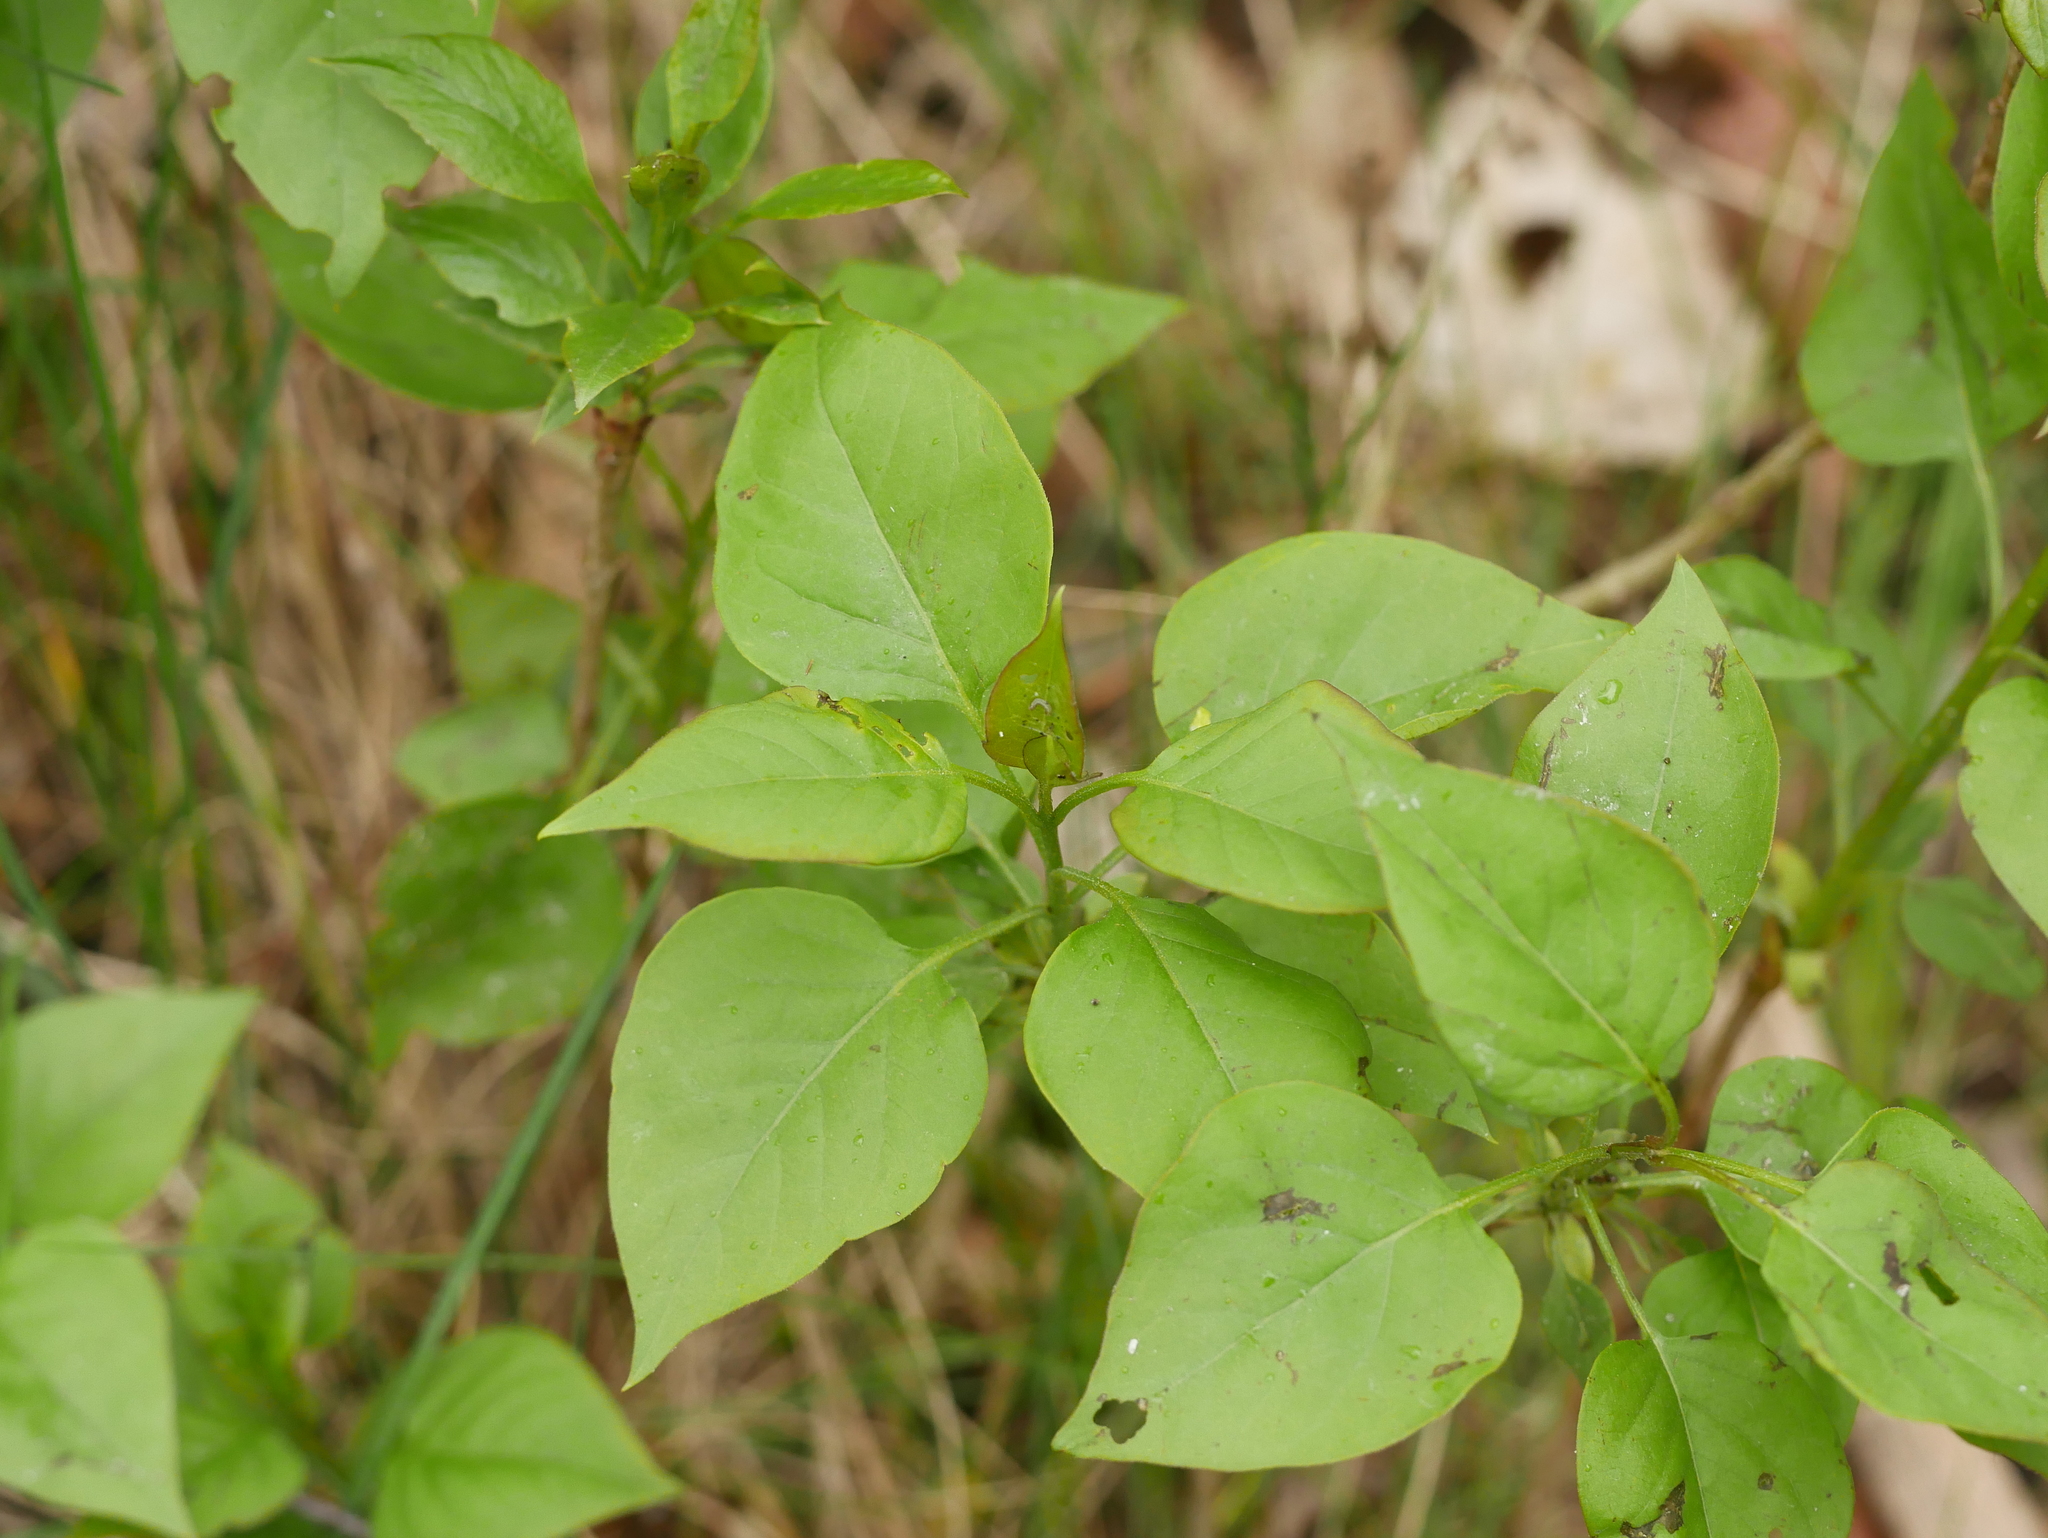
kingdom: Plantae
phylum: Tracheophyta
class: Magnoliopsida
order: Lamiales
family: Oleaceae
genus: Syringa
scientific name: Syringa vulgaris
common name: Common lilac
